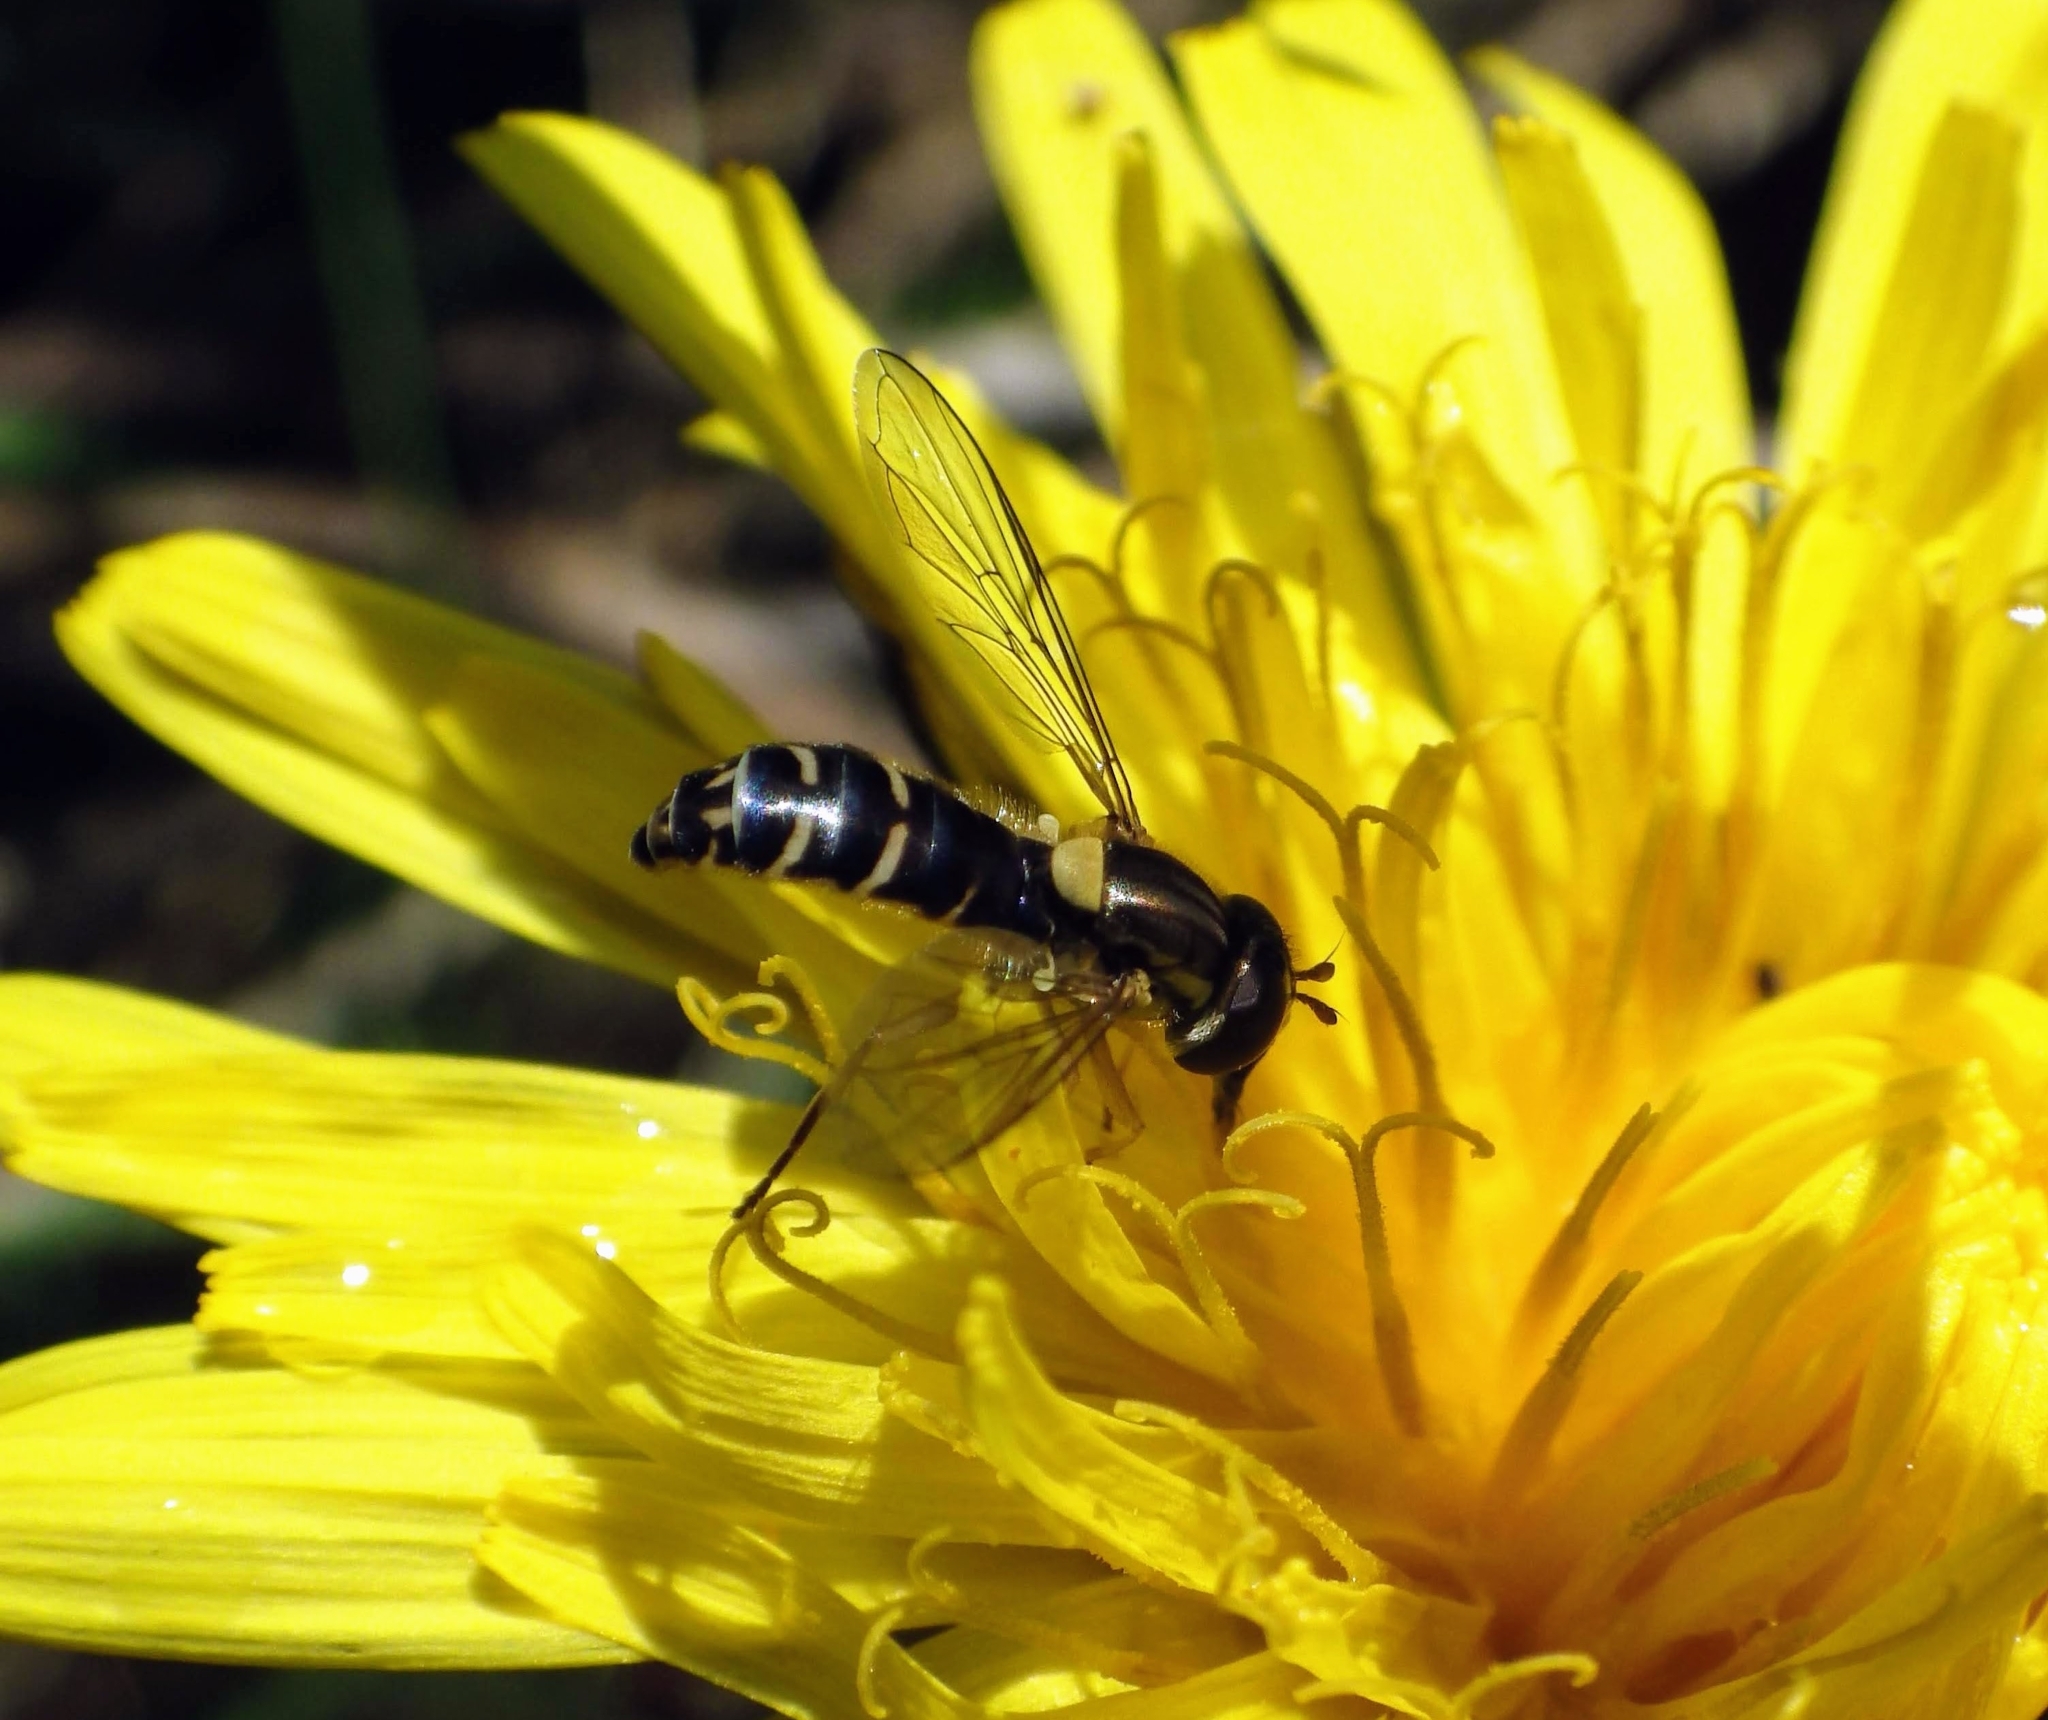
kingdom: Animalia
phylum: Arthropoda
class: Insecta
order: Diptera
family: Syrphidae
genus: Sphaerophoria
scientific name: Sphaerophoria
